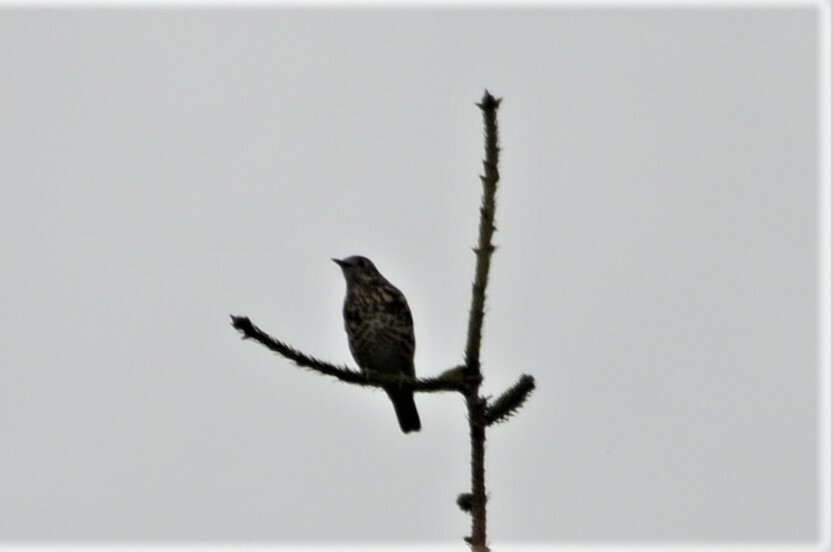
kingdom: Animalia
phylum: Chordata
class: Aves
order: Passeriformes
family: Turdidae
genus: Turdus
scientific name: Turdus viscivorus
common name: Mistle thrush
